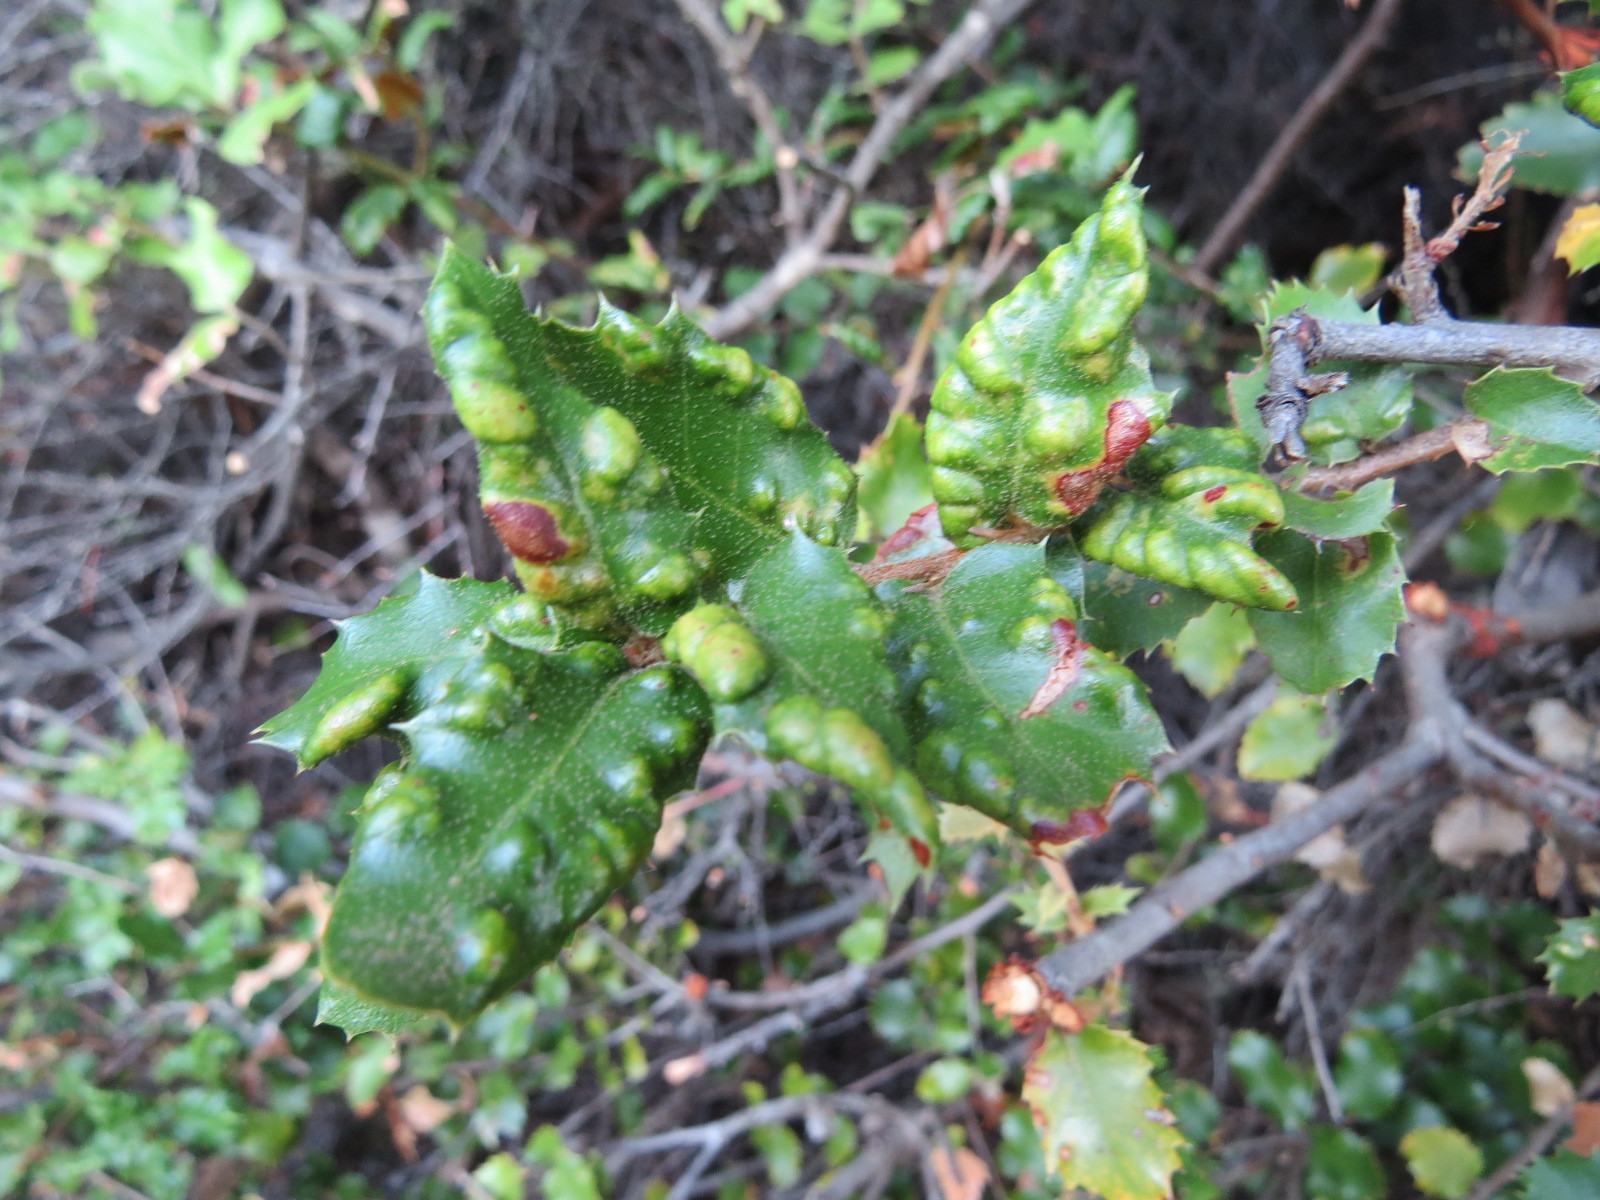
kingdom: Animalia
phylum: Arthropoda
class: Arachnida
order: Trombidiformes
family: Eriophyidae
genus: Aceria
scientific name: Aceria
